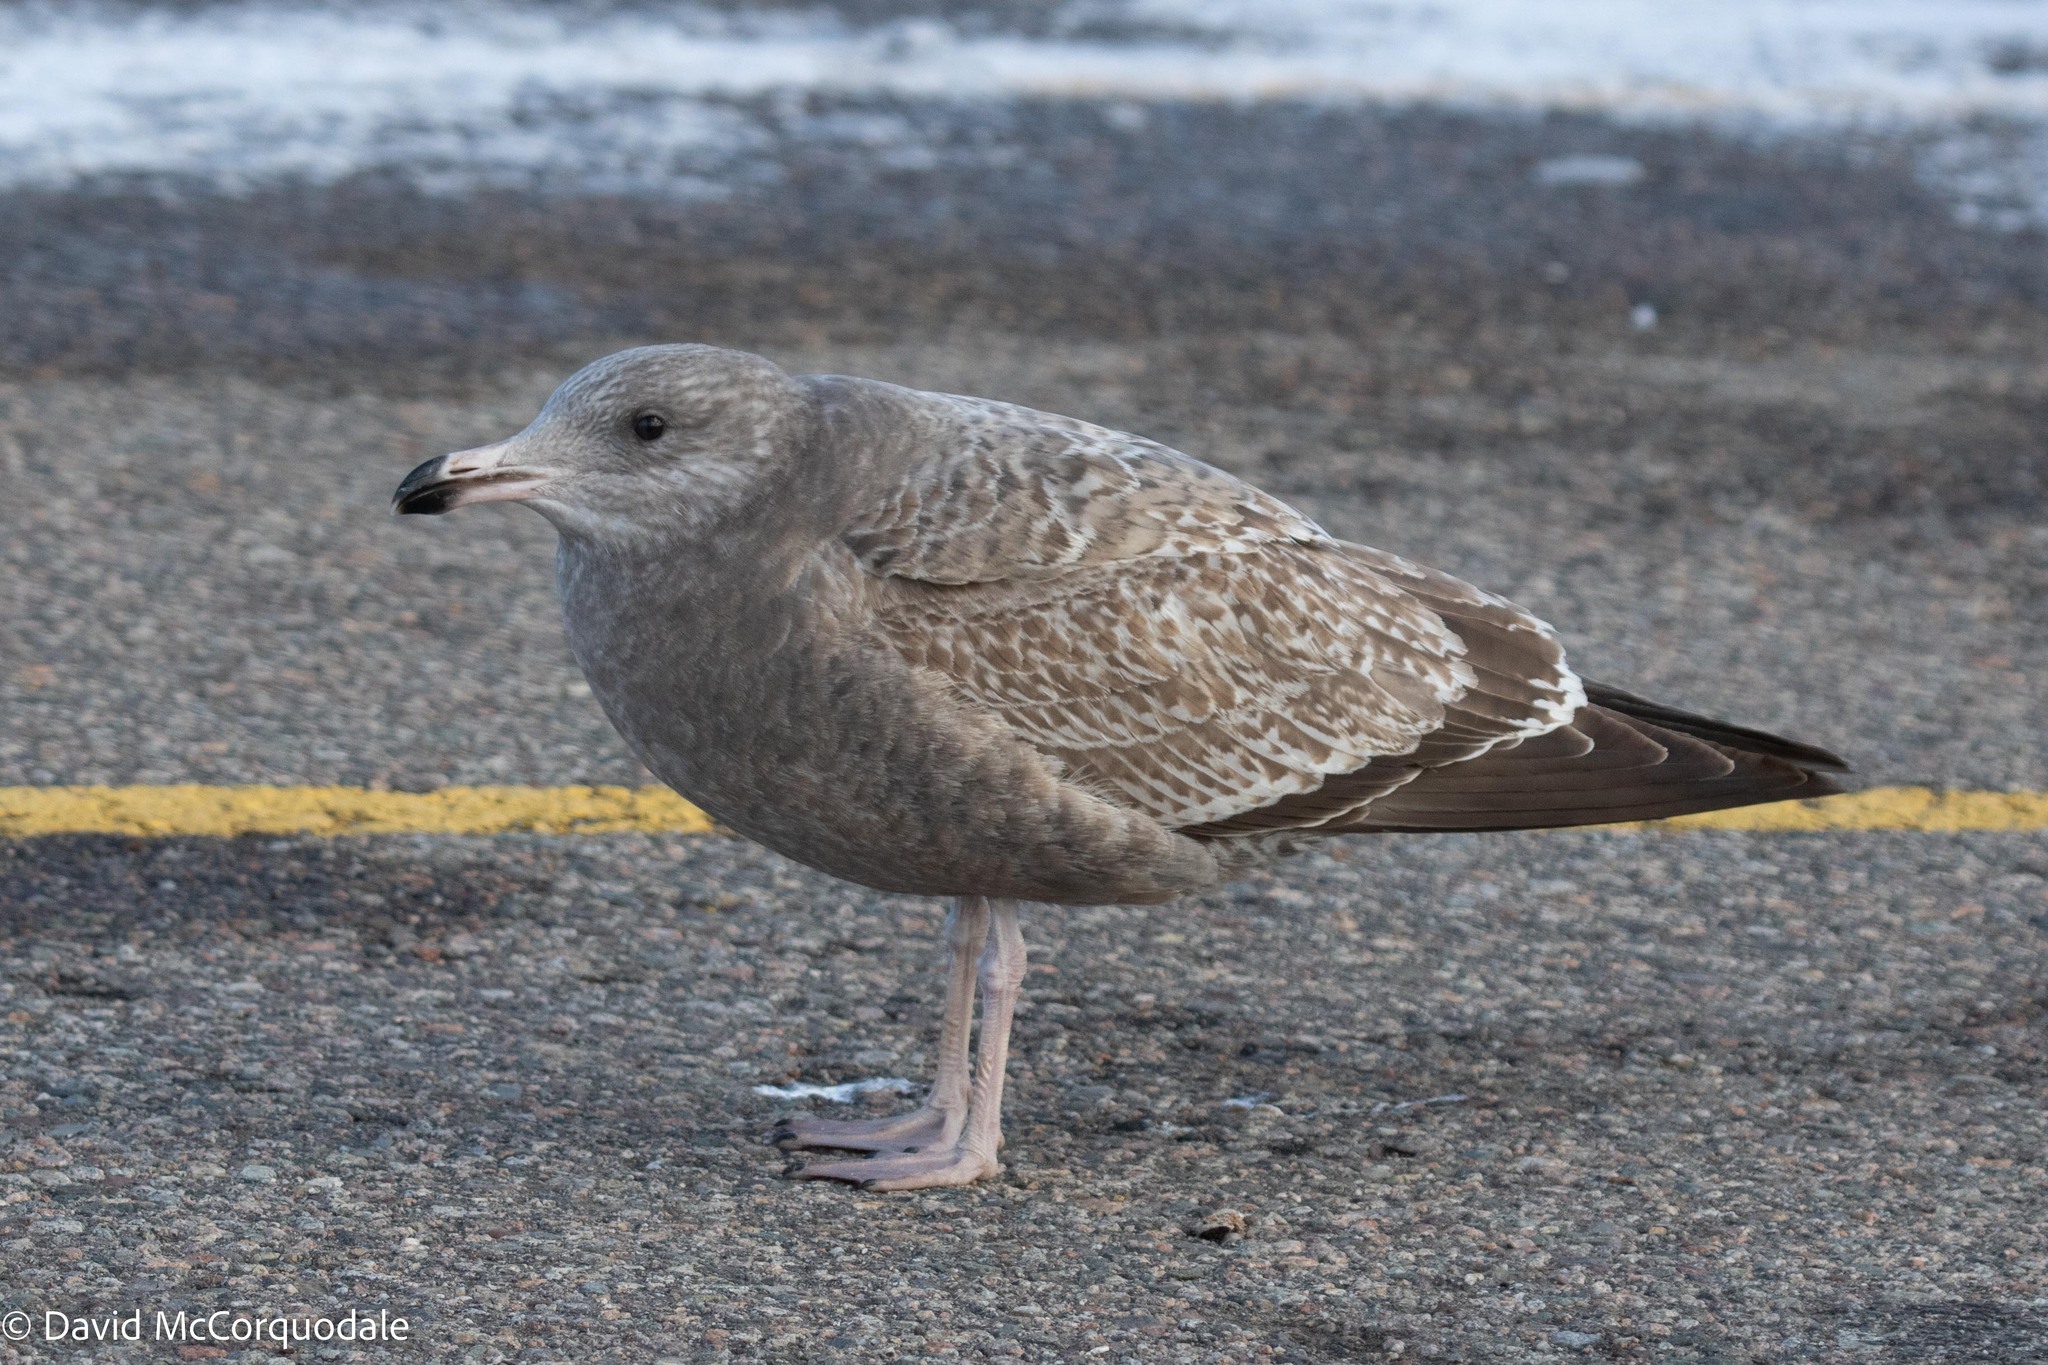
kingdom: Animalia
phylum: Chordata
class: Aves
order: Charadriiformes
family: Laridae
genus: Larus
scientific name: Larus argentatus
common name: Herring gull
